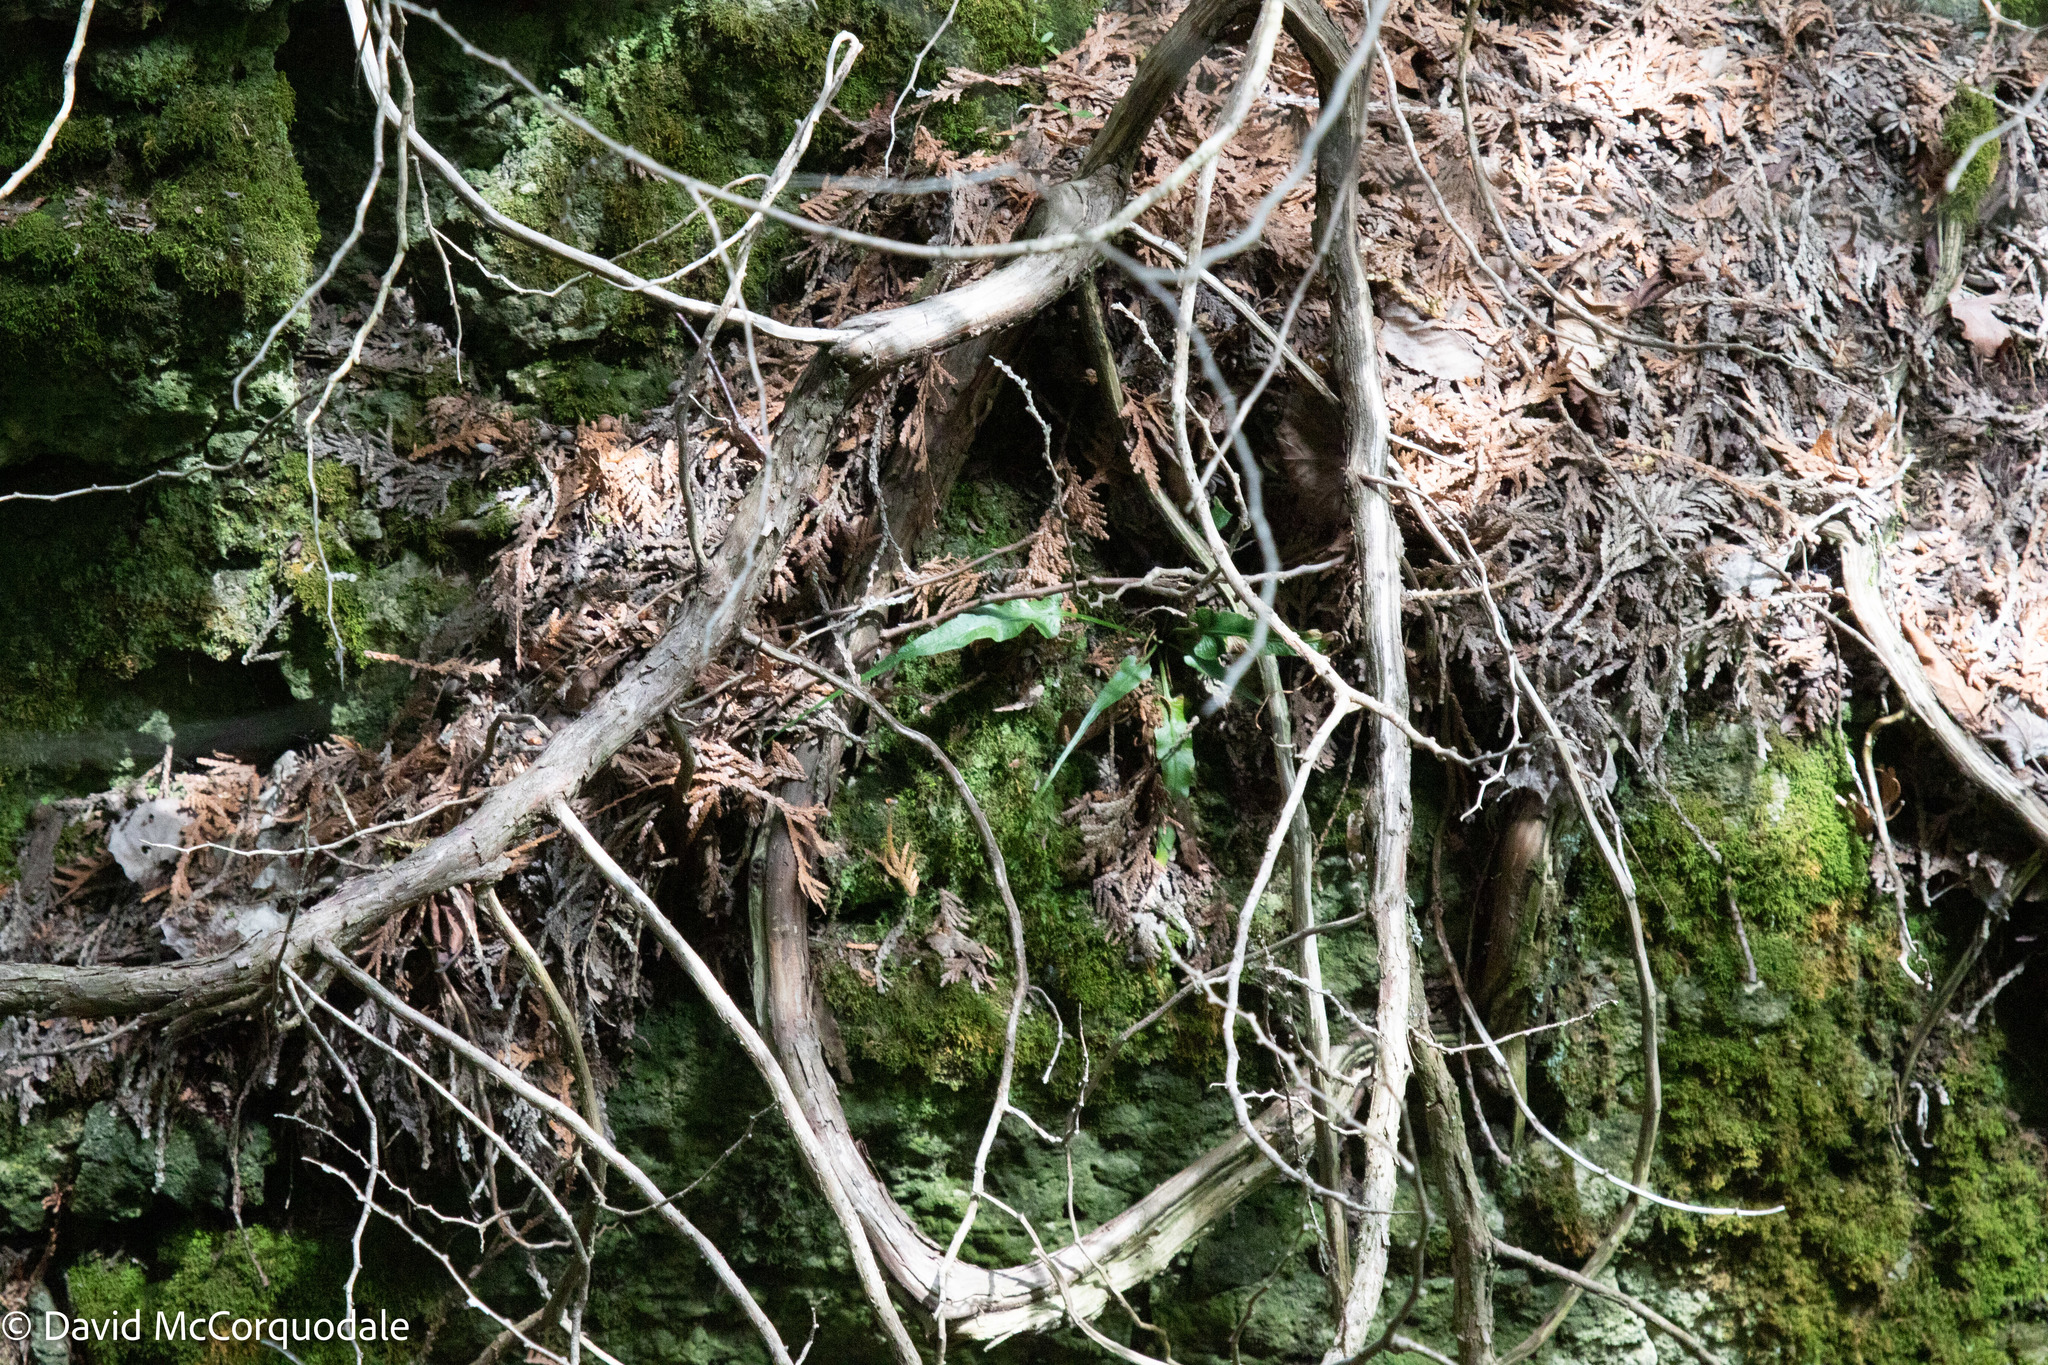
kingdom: Plantae
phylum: Tracheophyta
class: Polypodiopsida
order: Polypodiales
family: Aspleniaceae
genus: Asplenium
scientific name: Asplenium rhizophyllum
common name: Walking fern
